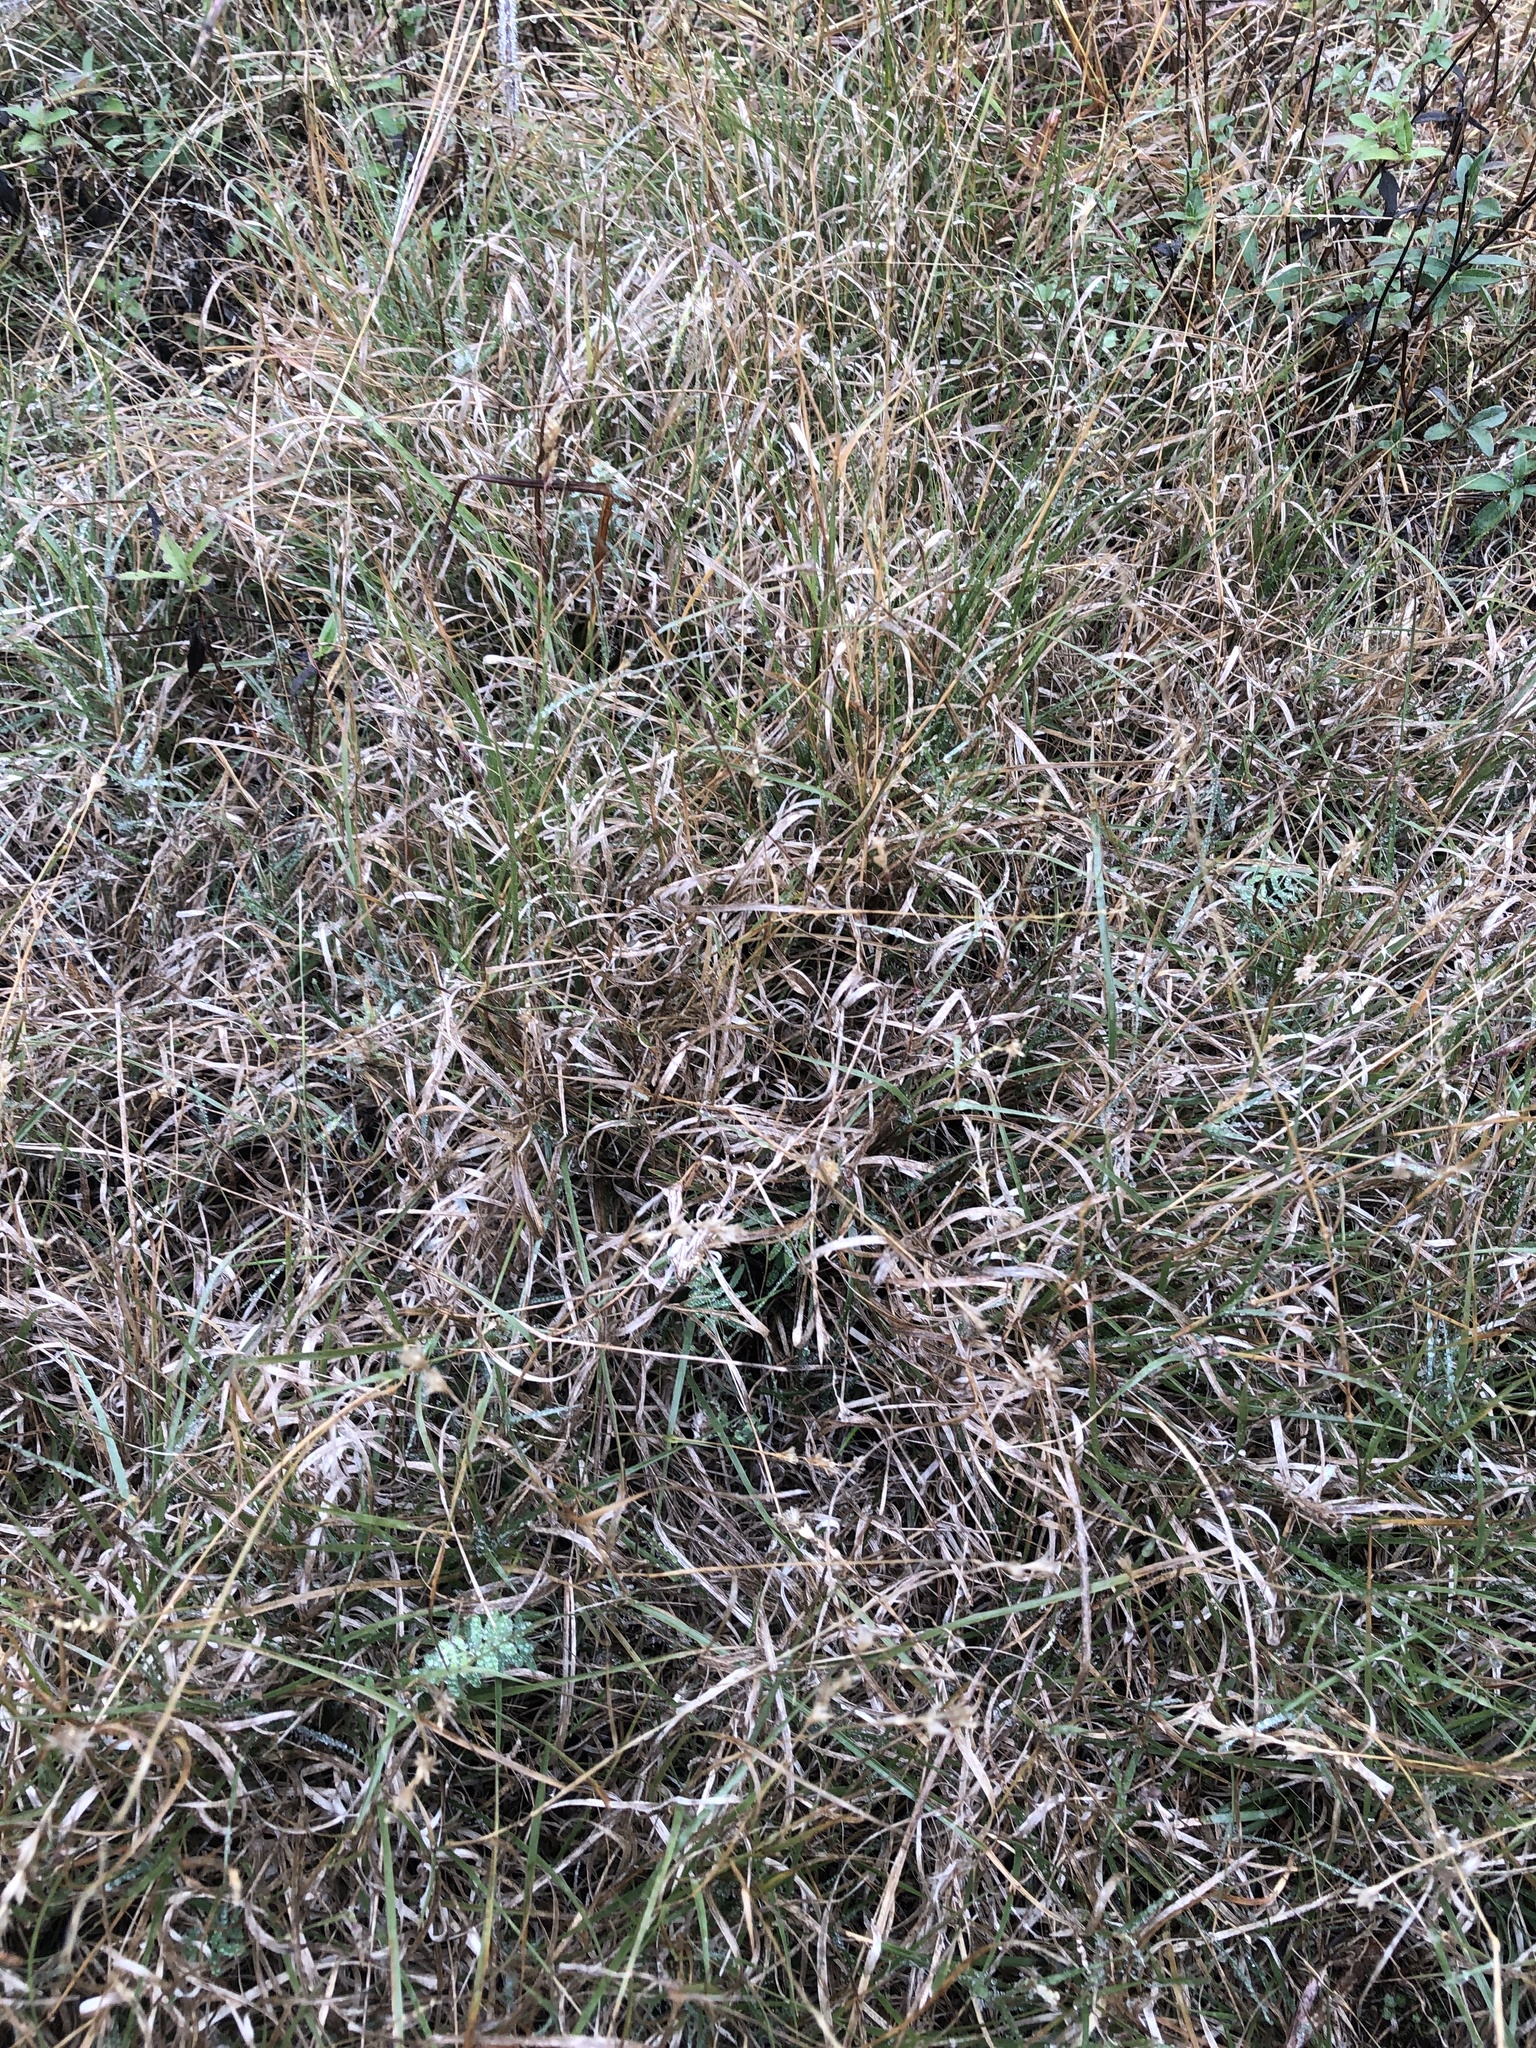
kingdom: Plantae
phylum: Tracheophyta
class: Liliopsida
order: Poales
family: Poaceae
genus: Hilaria
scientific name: Hilaria belangeri
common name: Curly-mesquite
